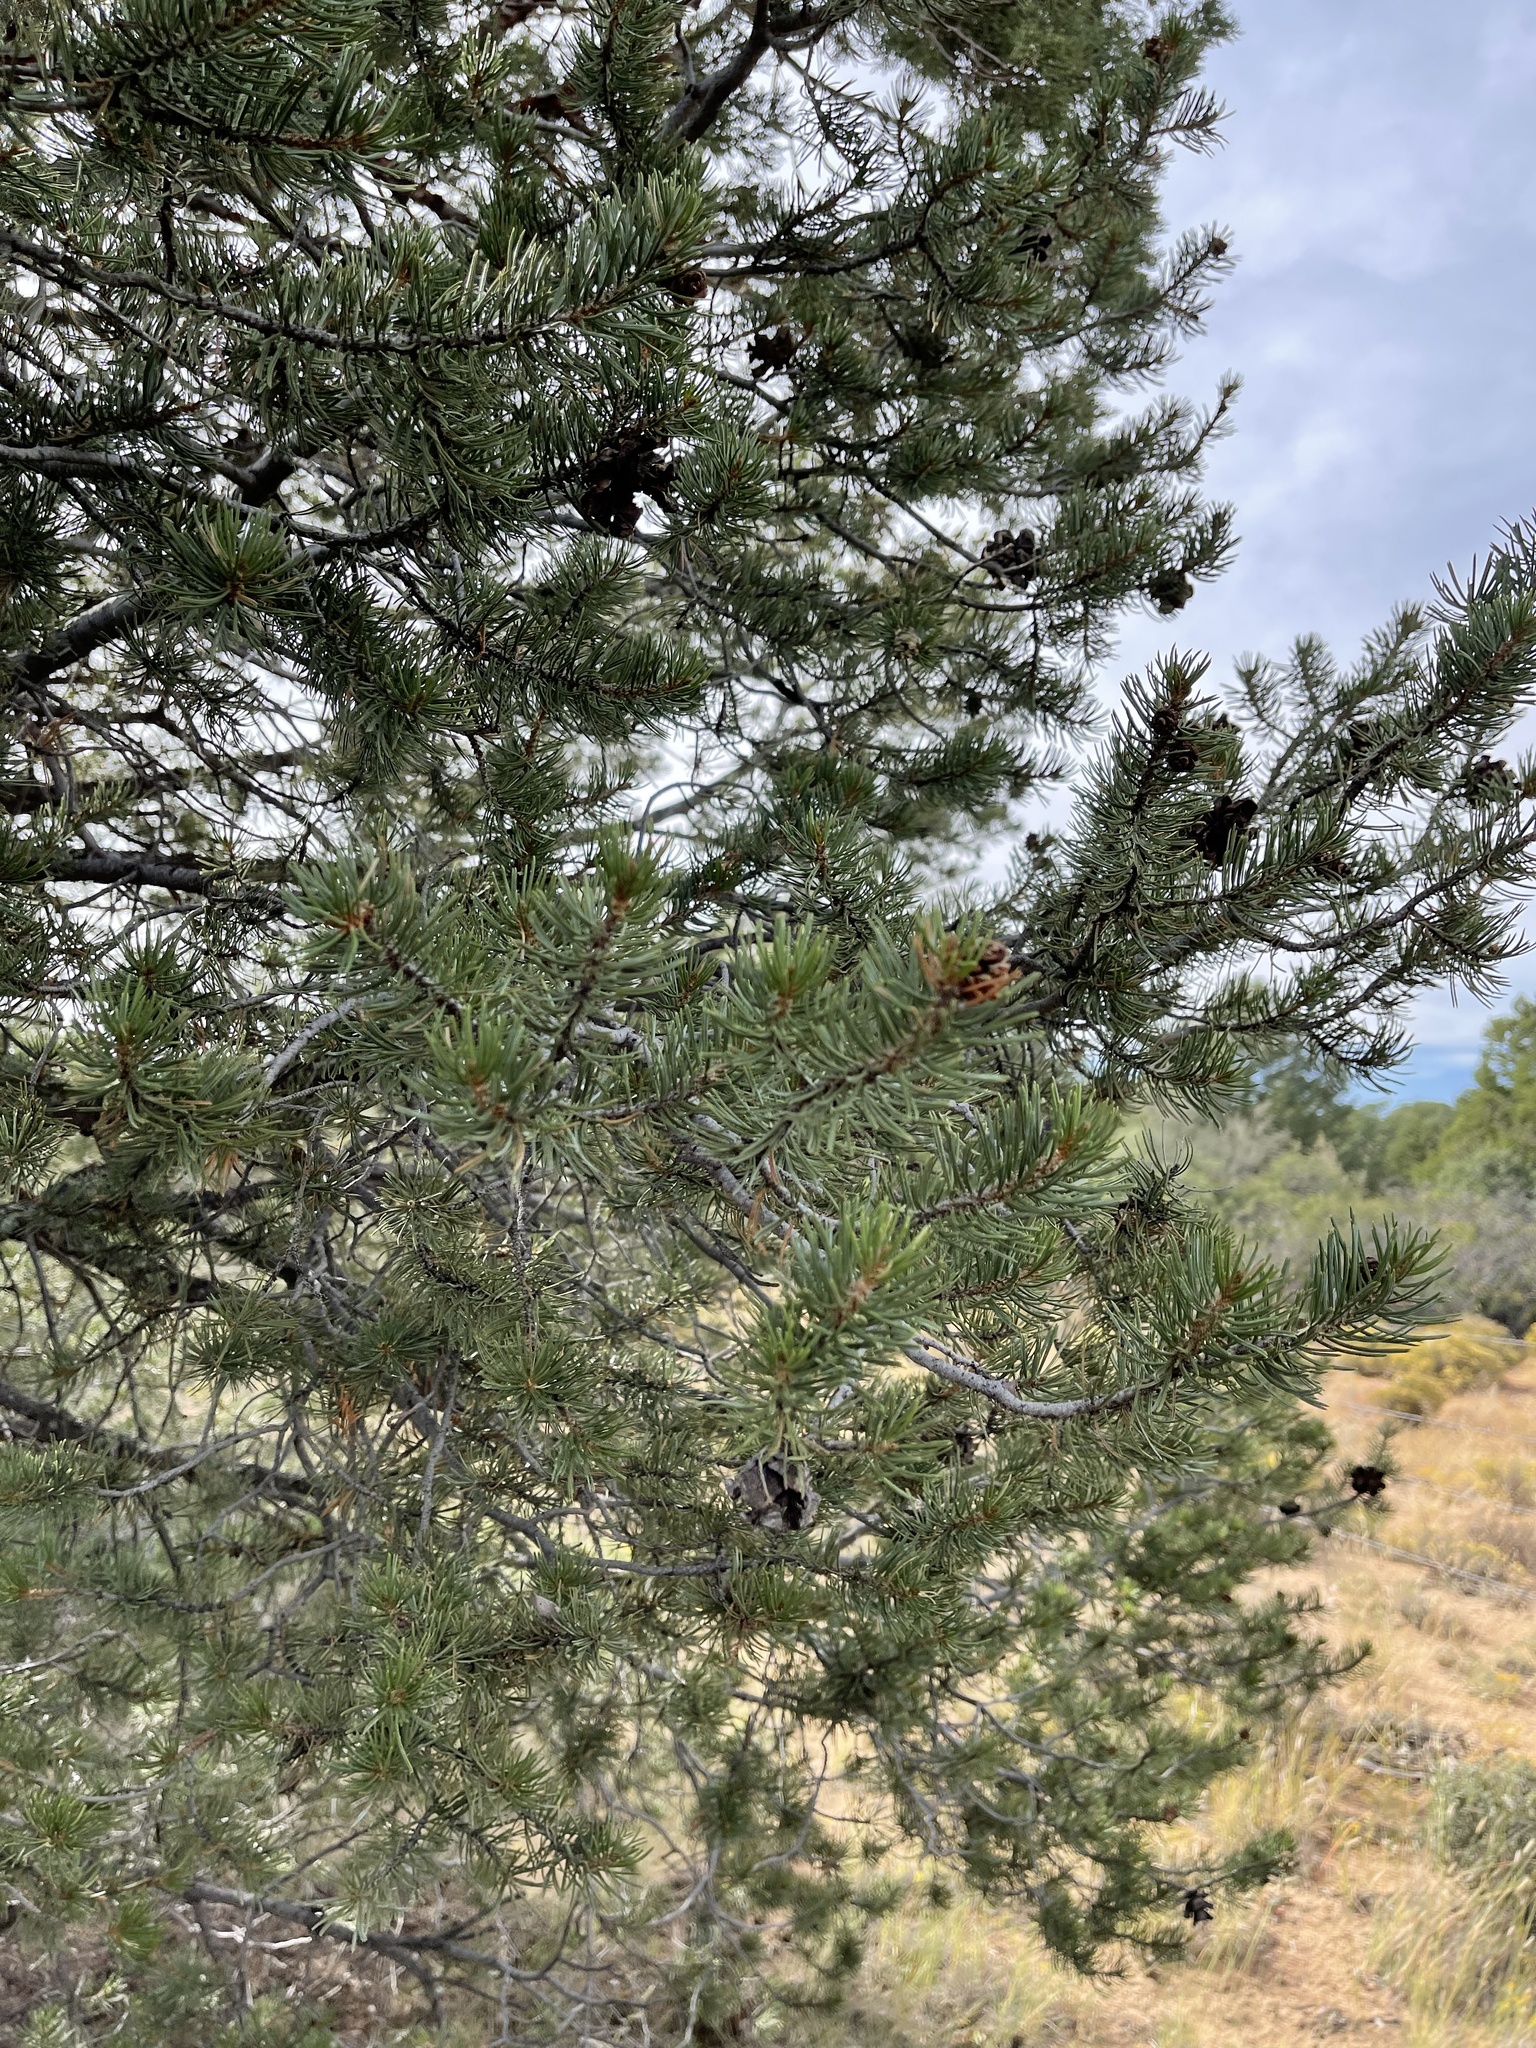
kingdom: Plantae
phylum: Tracheophyta
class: Pinopsida
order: Pinales
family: Pinaceae
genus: Pinus
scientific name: Pinus edulis
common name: Colorado pinyon
